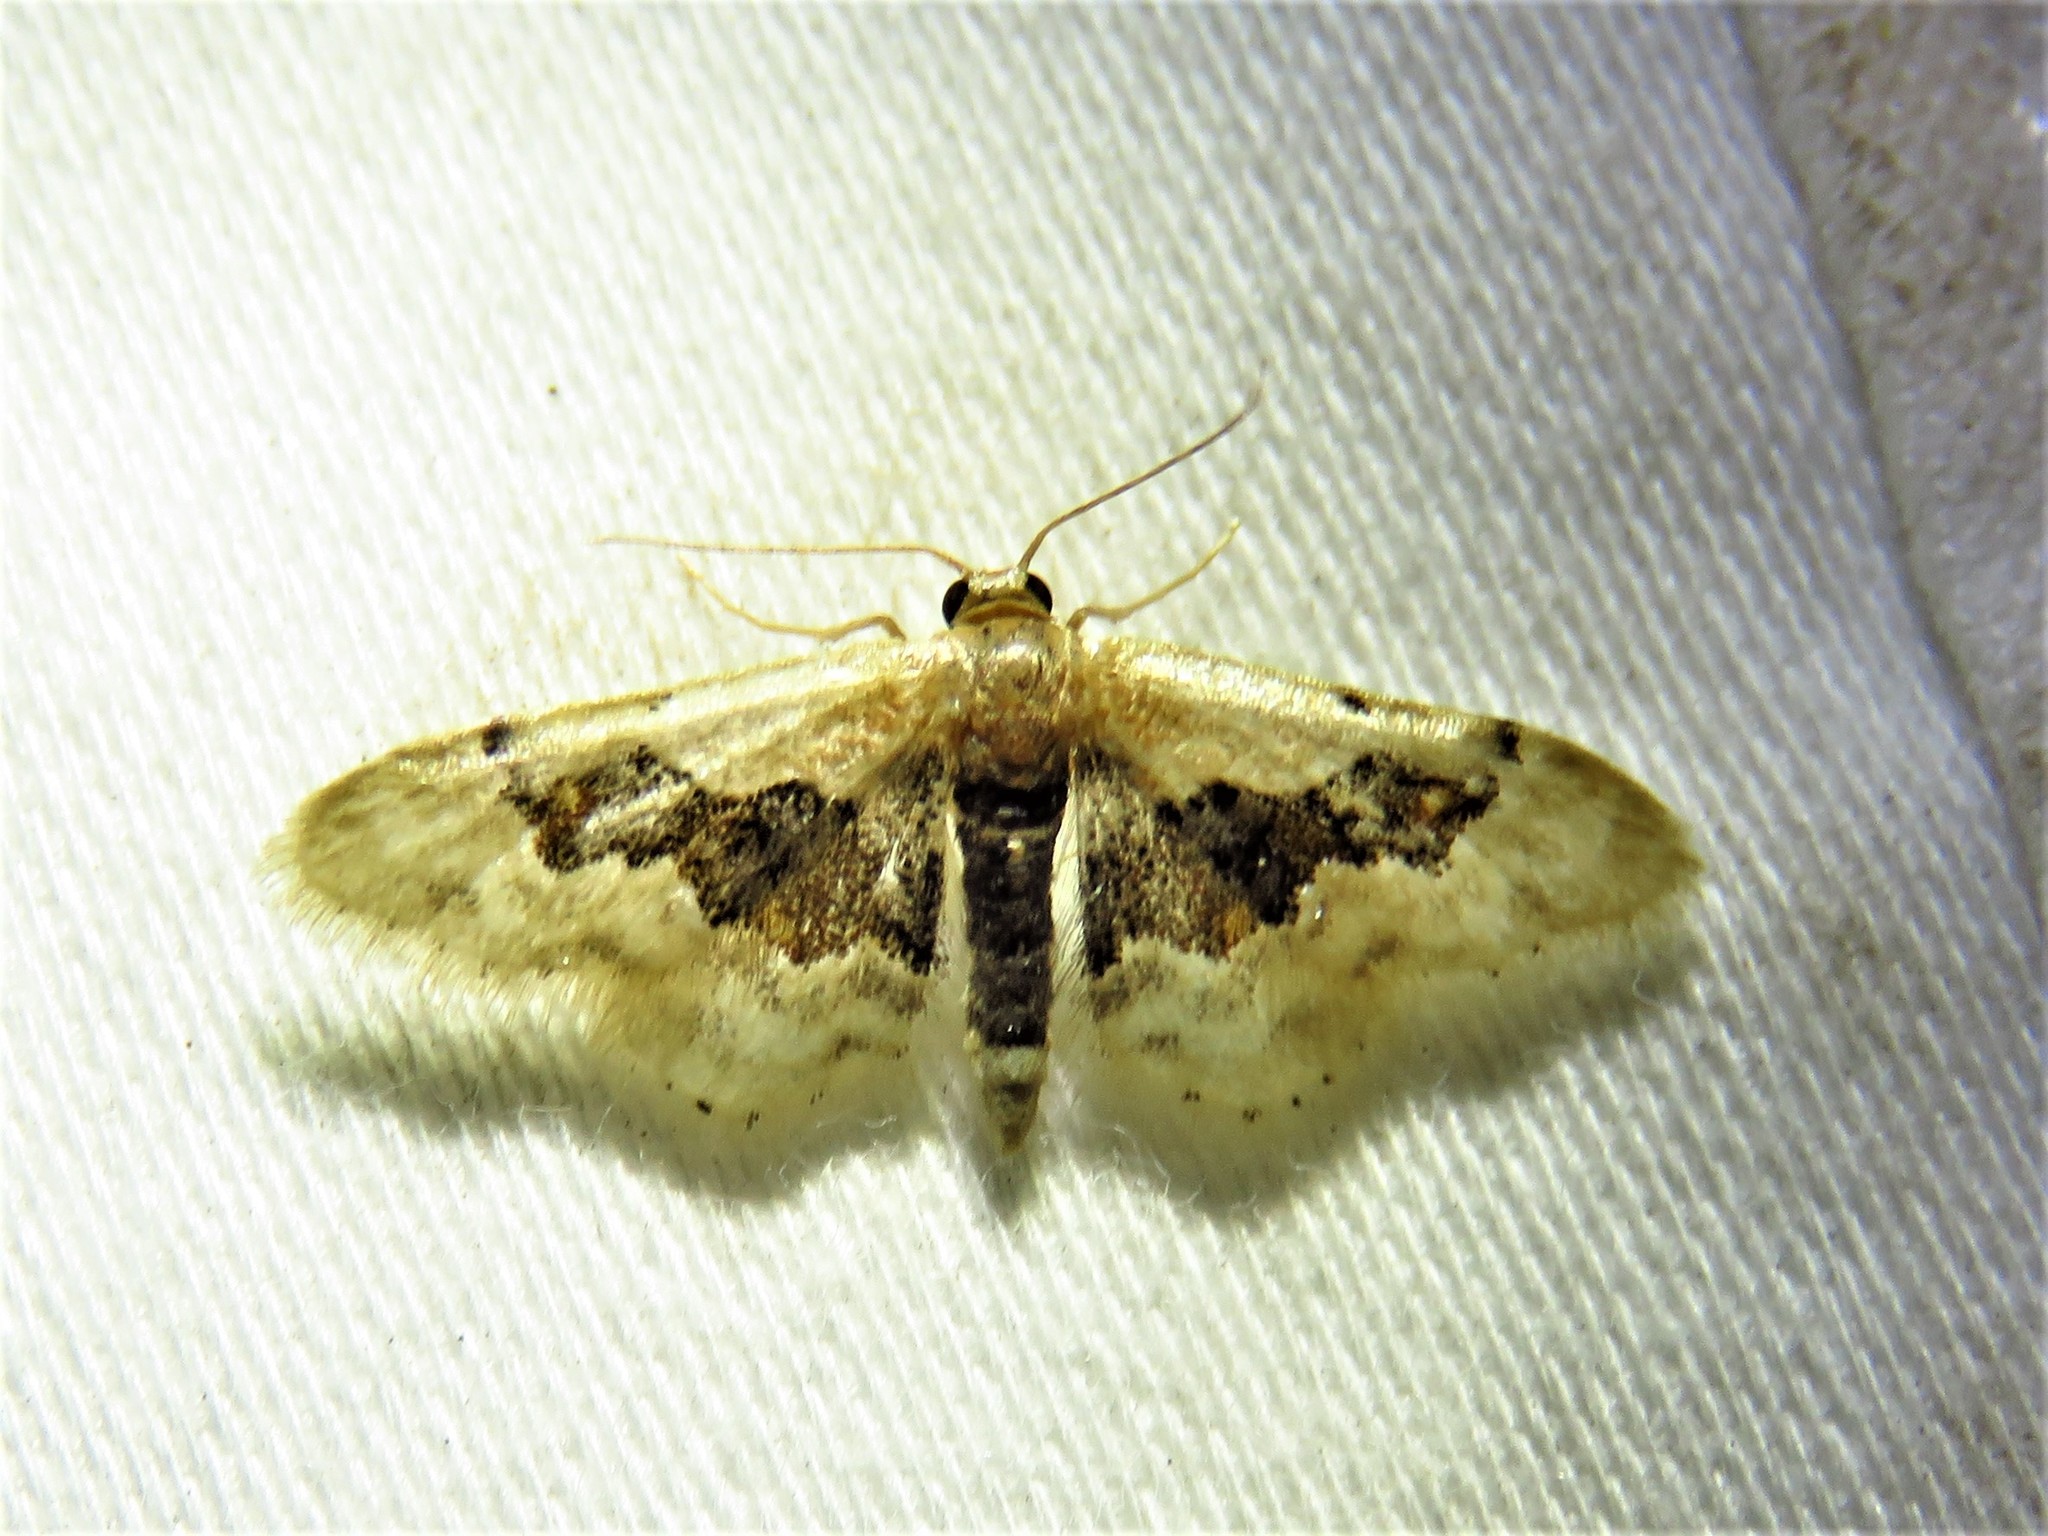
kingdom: Animalia
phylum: Arthropoda
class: Insecta
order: Lepidoptera
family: Geometridae
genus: Idaea
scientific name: Idaea gemmata
